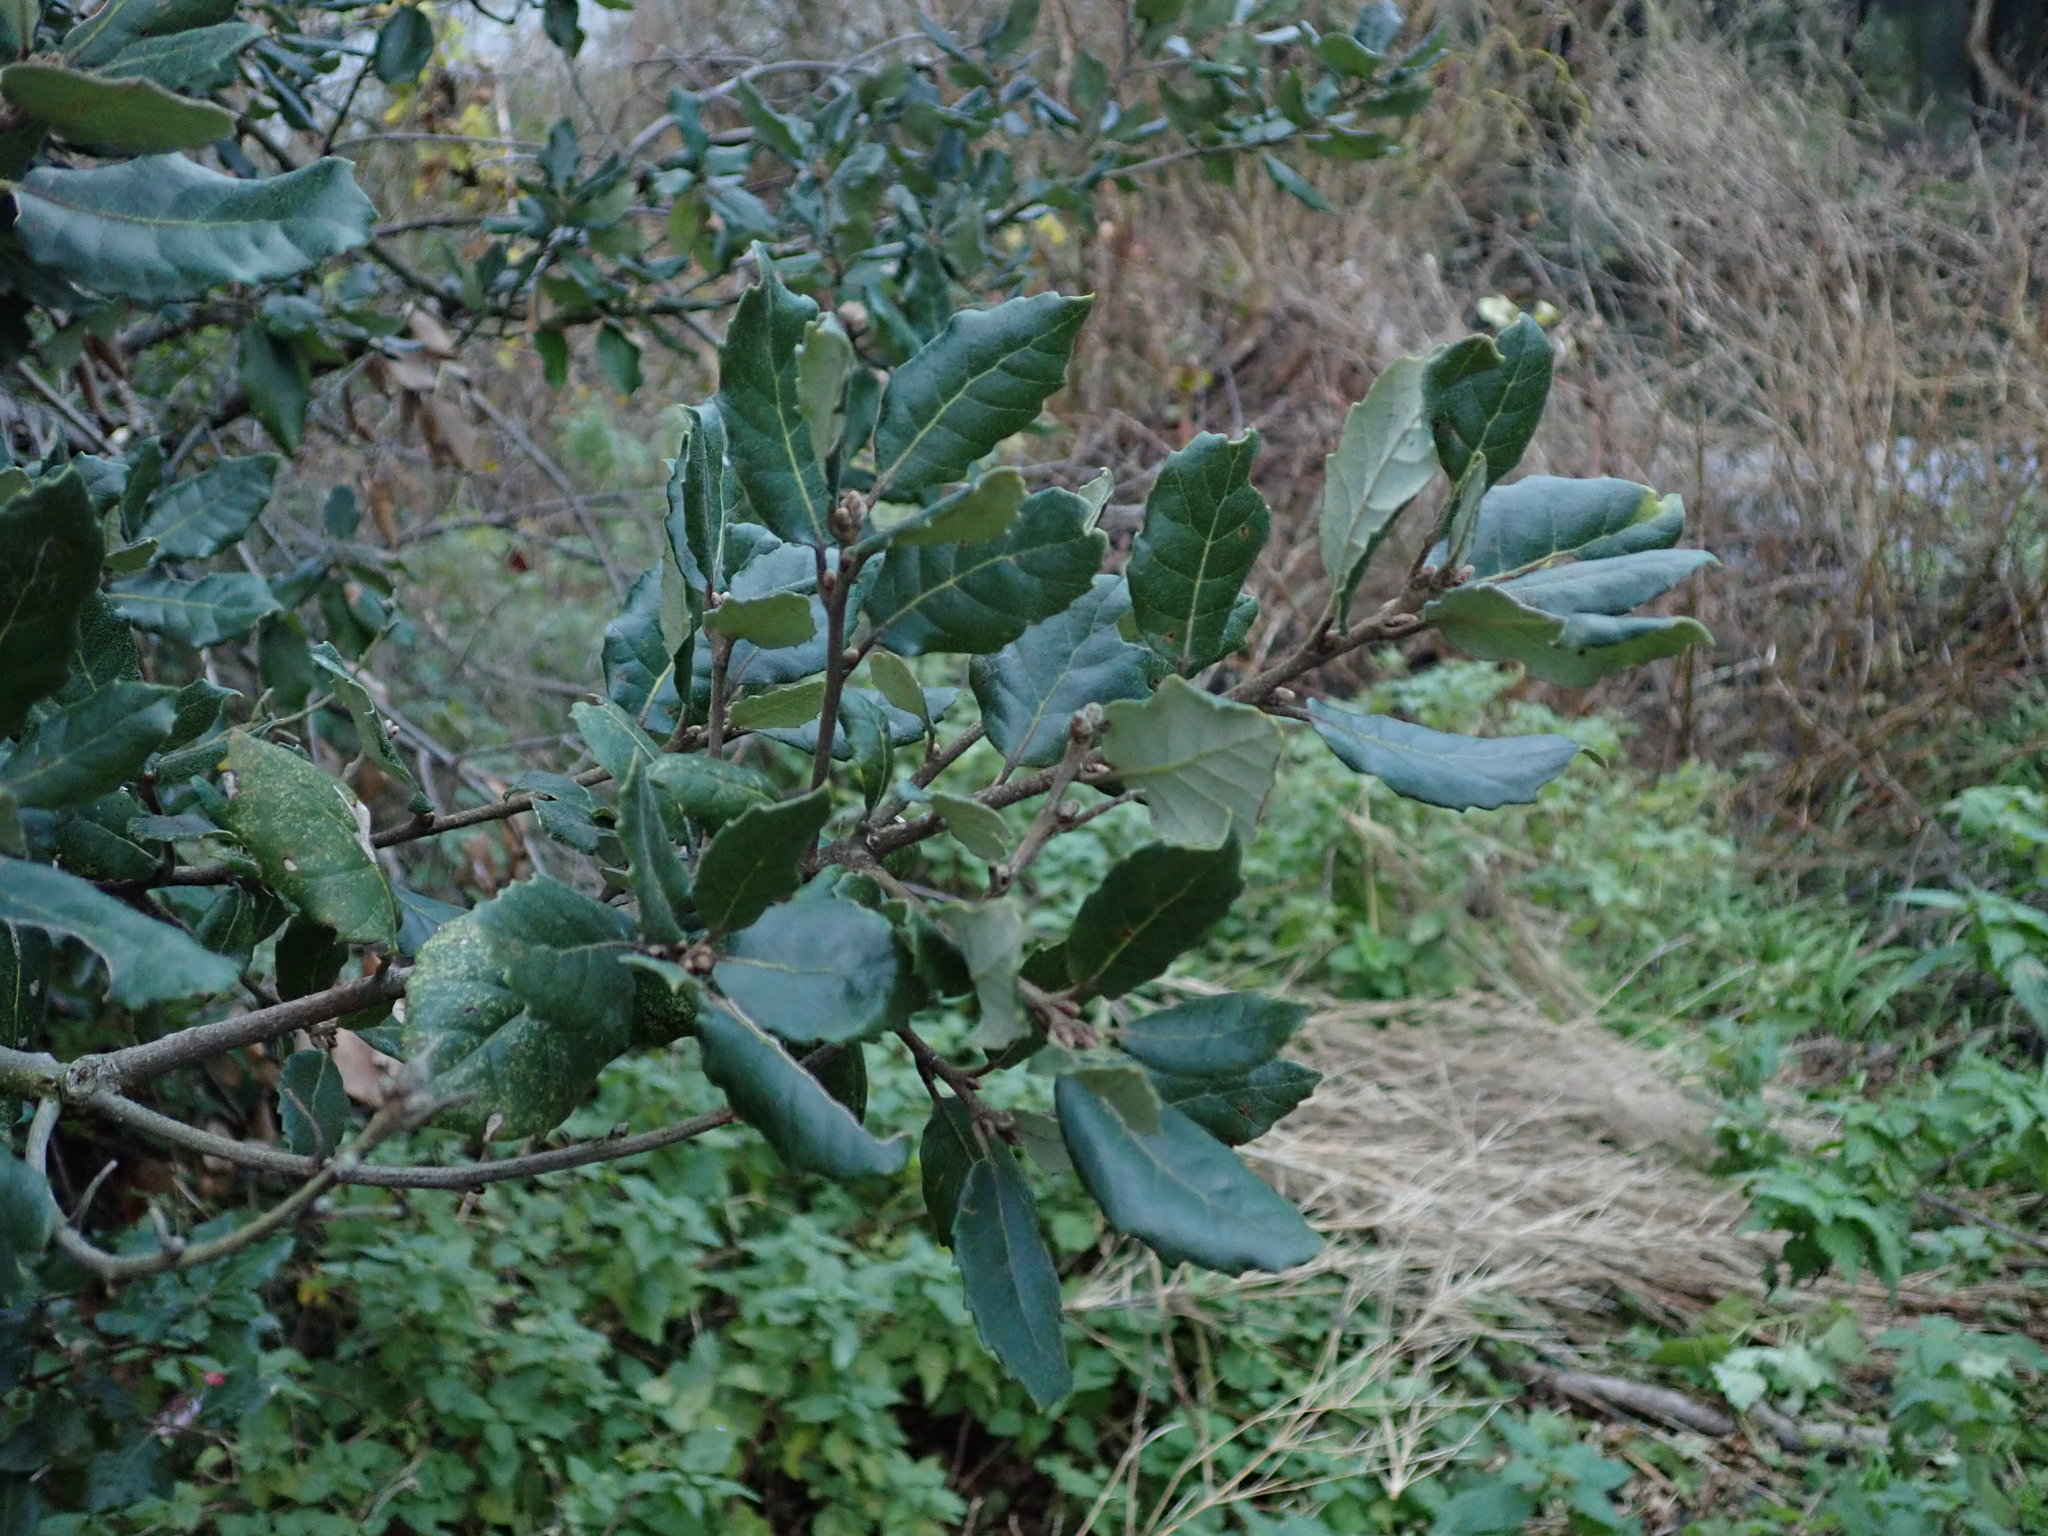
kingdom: Plantae
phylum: Tracheophyta
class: Magnoliopsida
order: Fagales
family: Fagaceae
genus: Quercus
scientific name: Quercus ilex
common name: Evergreen oak
